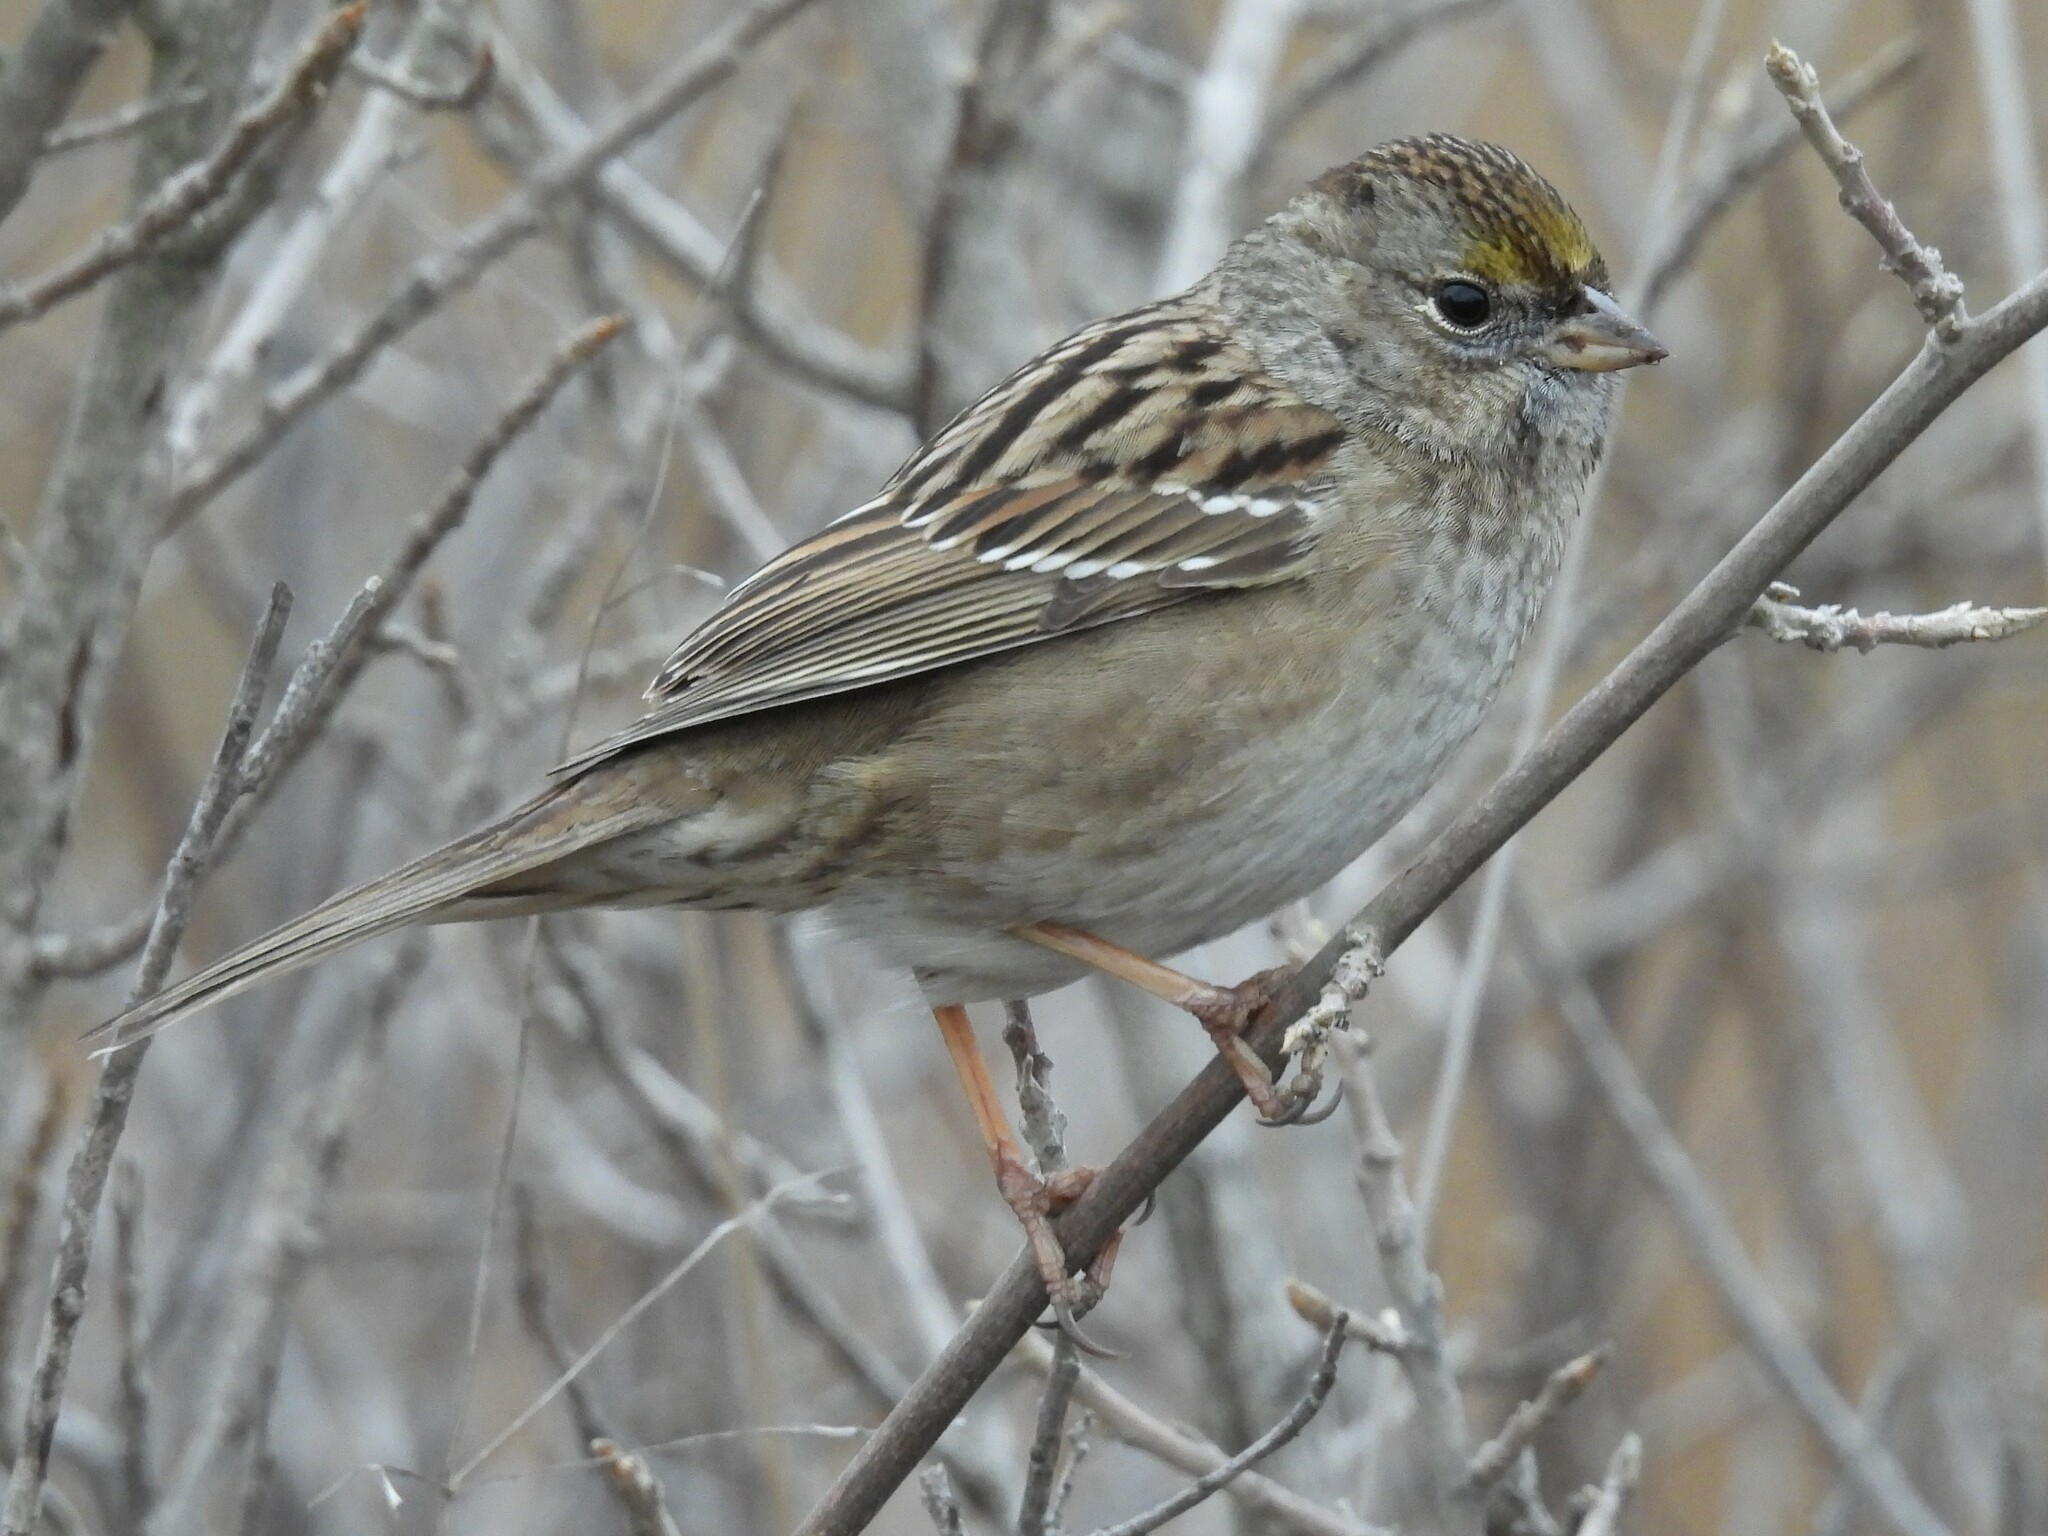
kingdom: Animalia
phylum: Chordata
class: Aves
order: Passeriformes
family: Passerellidae
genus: Zonotrichia
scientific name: Zonotrichia atricapilla
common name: Golden-crowned sparrow
